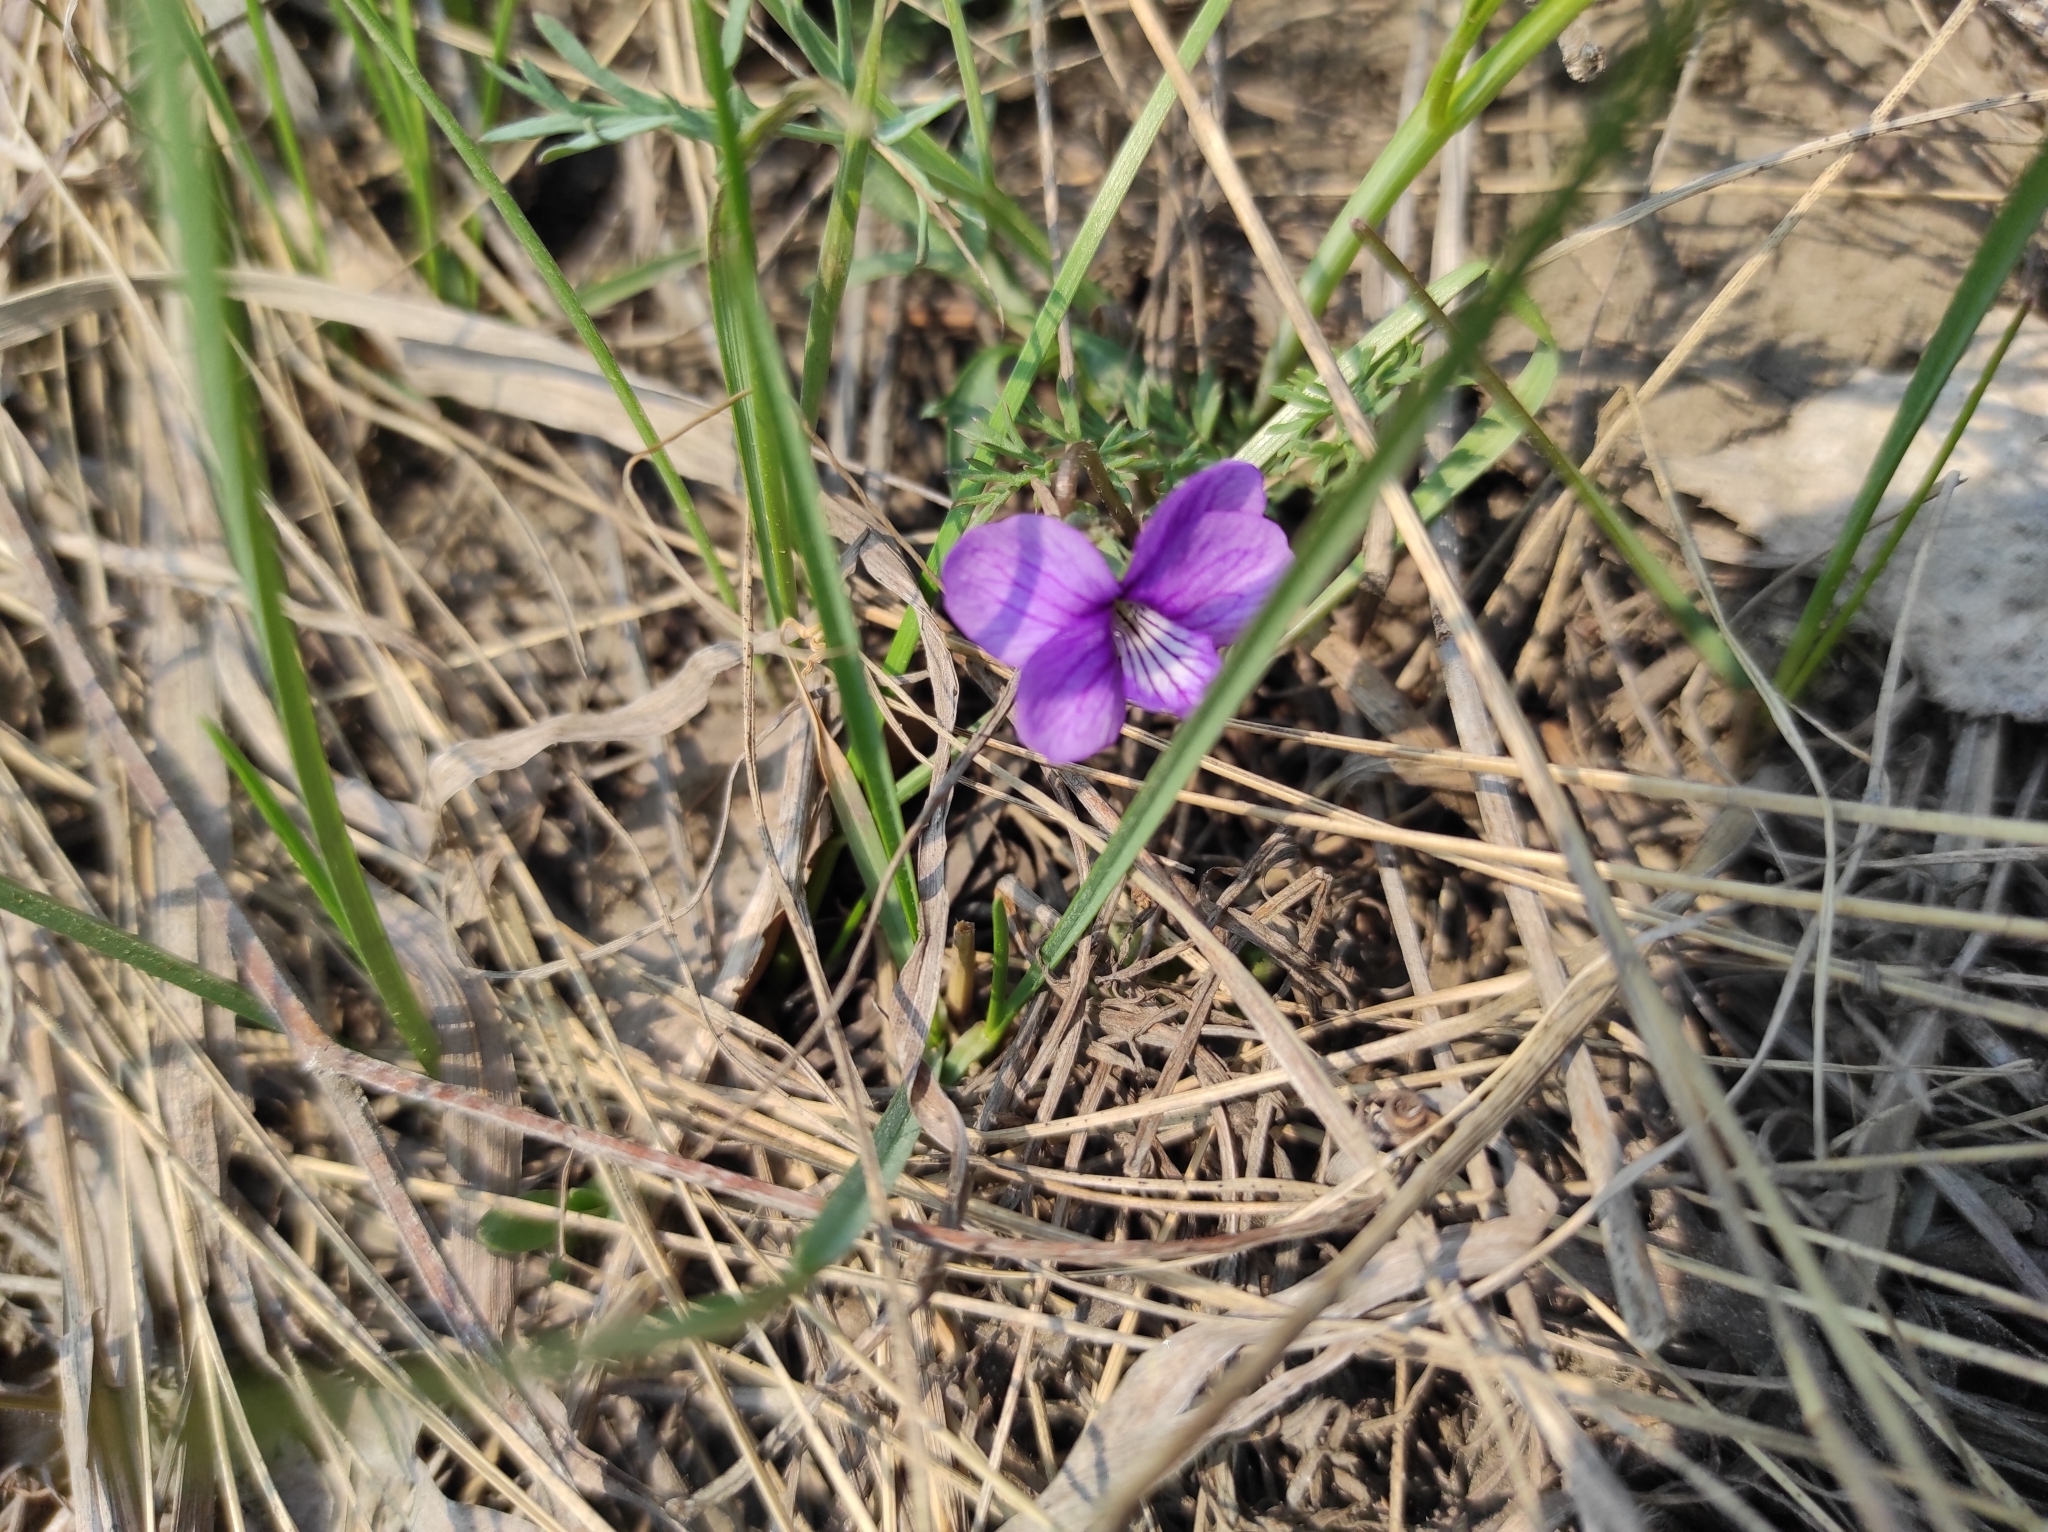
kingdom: Plantae
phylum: Tracheophyta
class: Magnoliopsida
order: Malpighiales
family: Violaceae
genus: Viola
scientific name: Viola multifida
